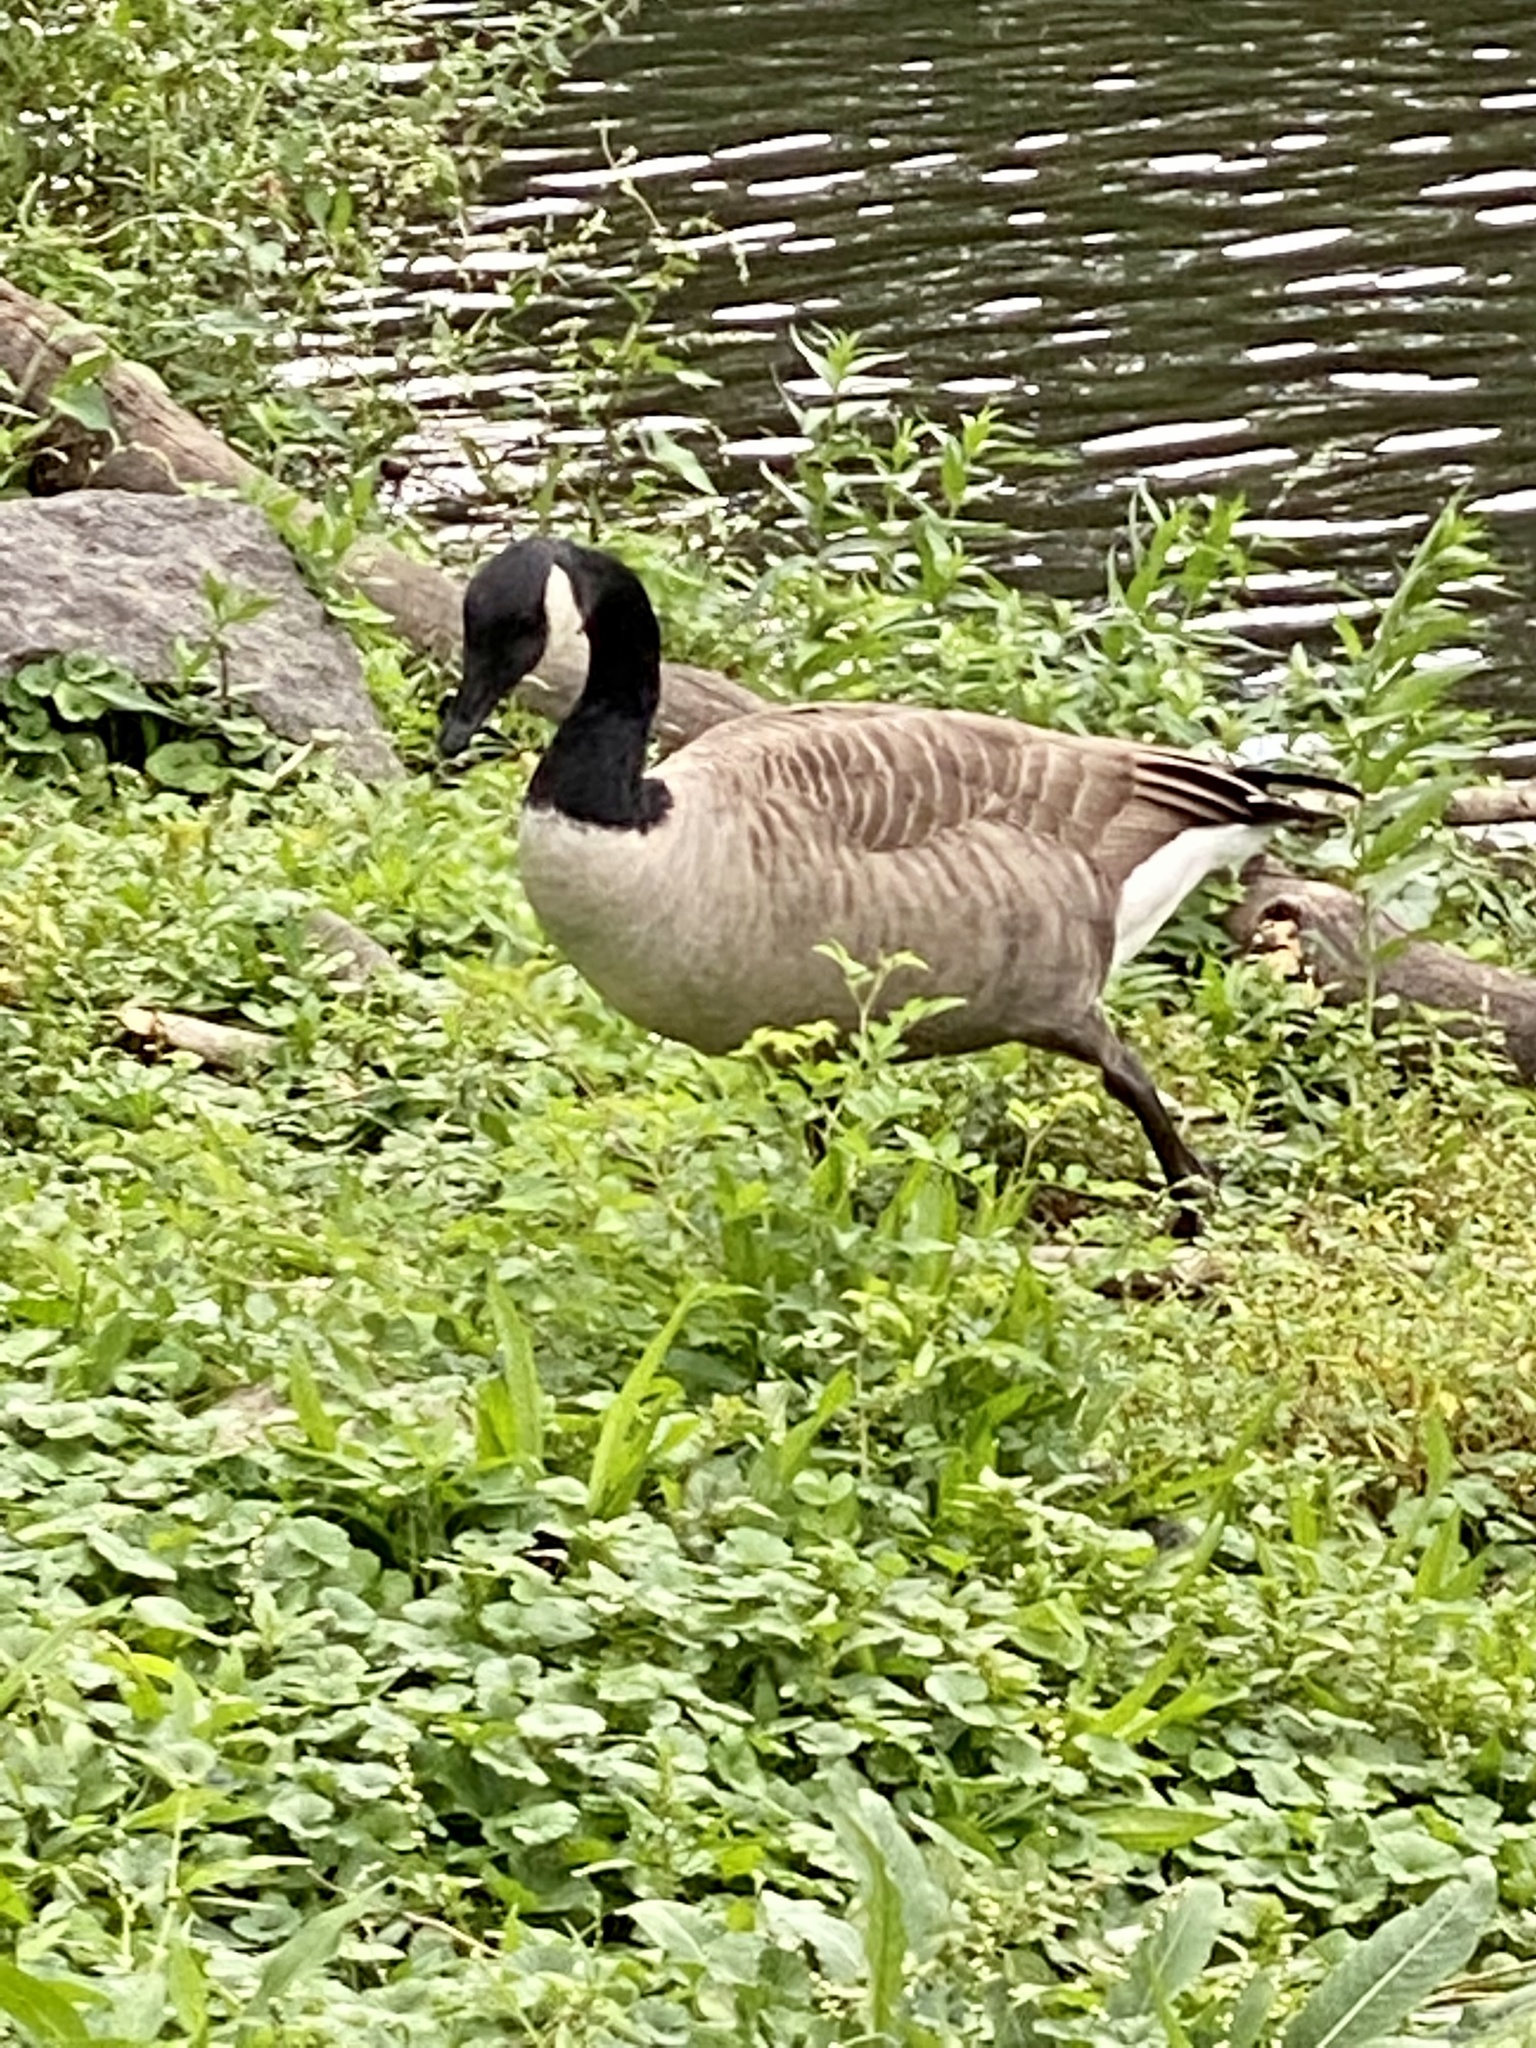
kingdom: Animalia
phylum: Chordata
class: Aves
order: Anseriformes
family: Anatidae
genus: Branta
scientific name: Branta canadensis
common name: Canada goose
